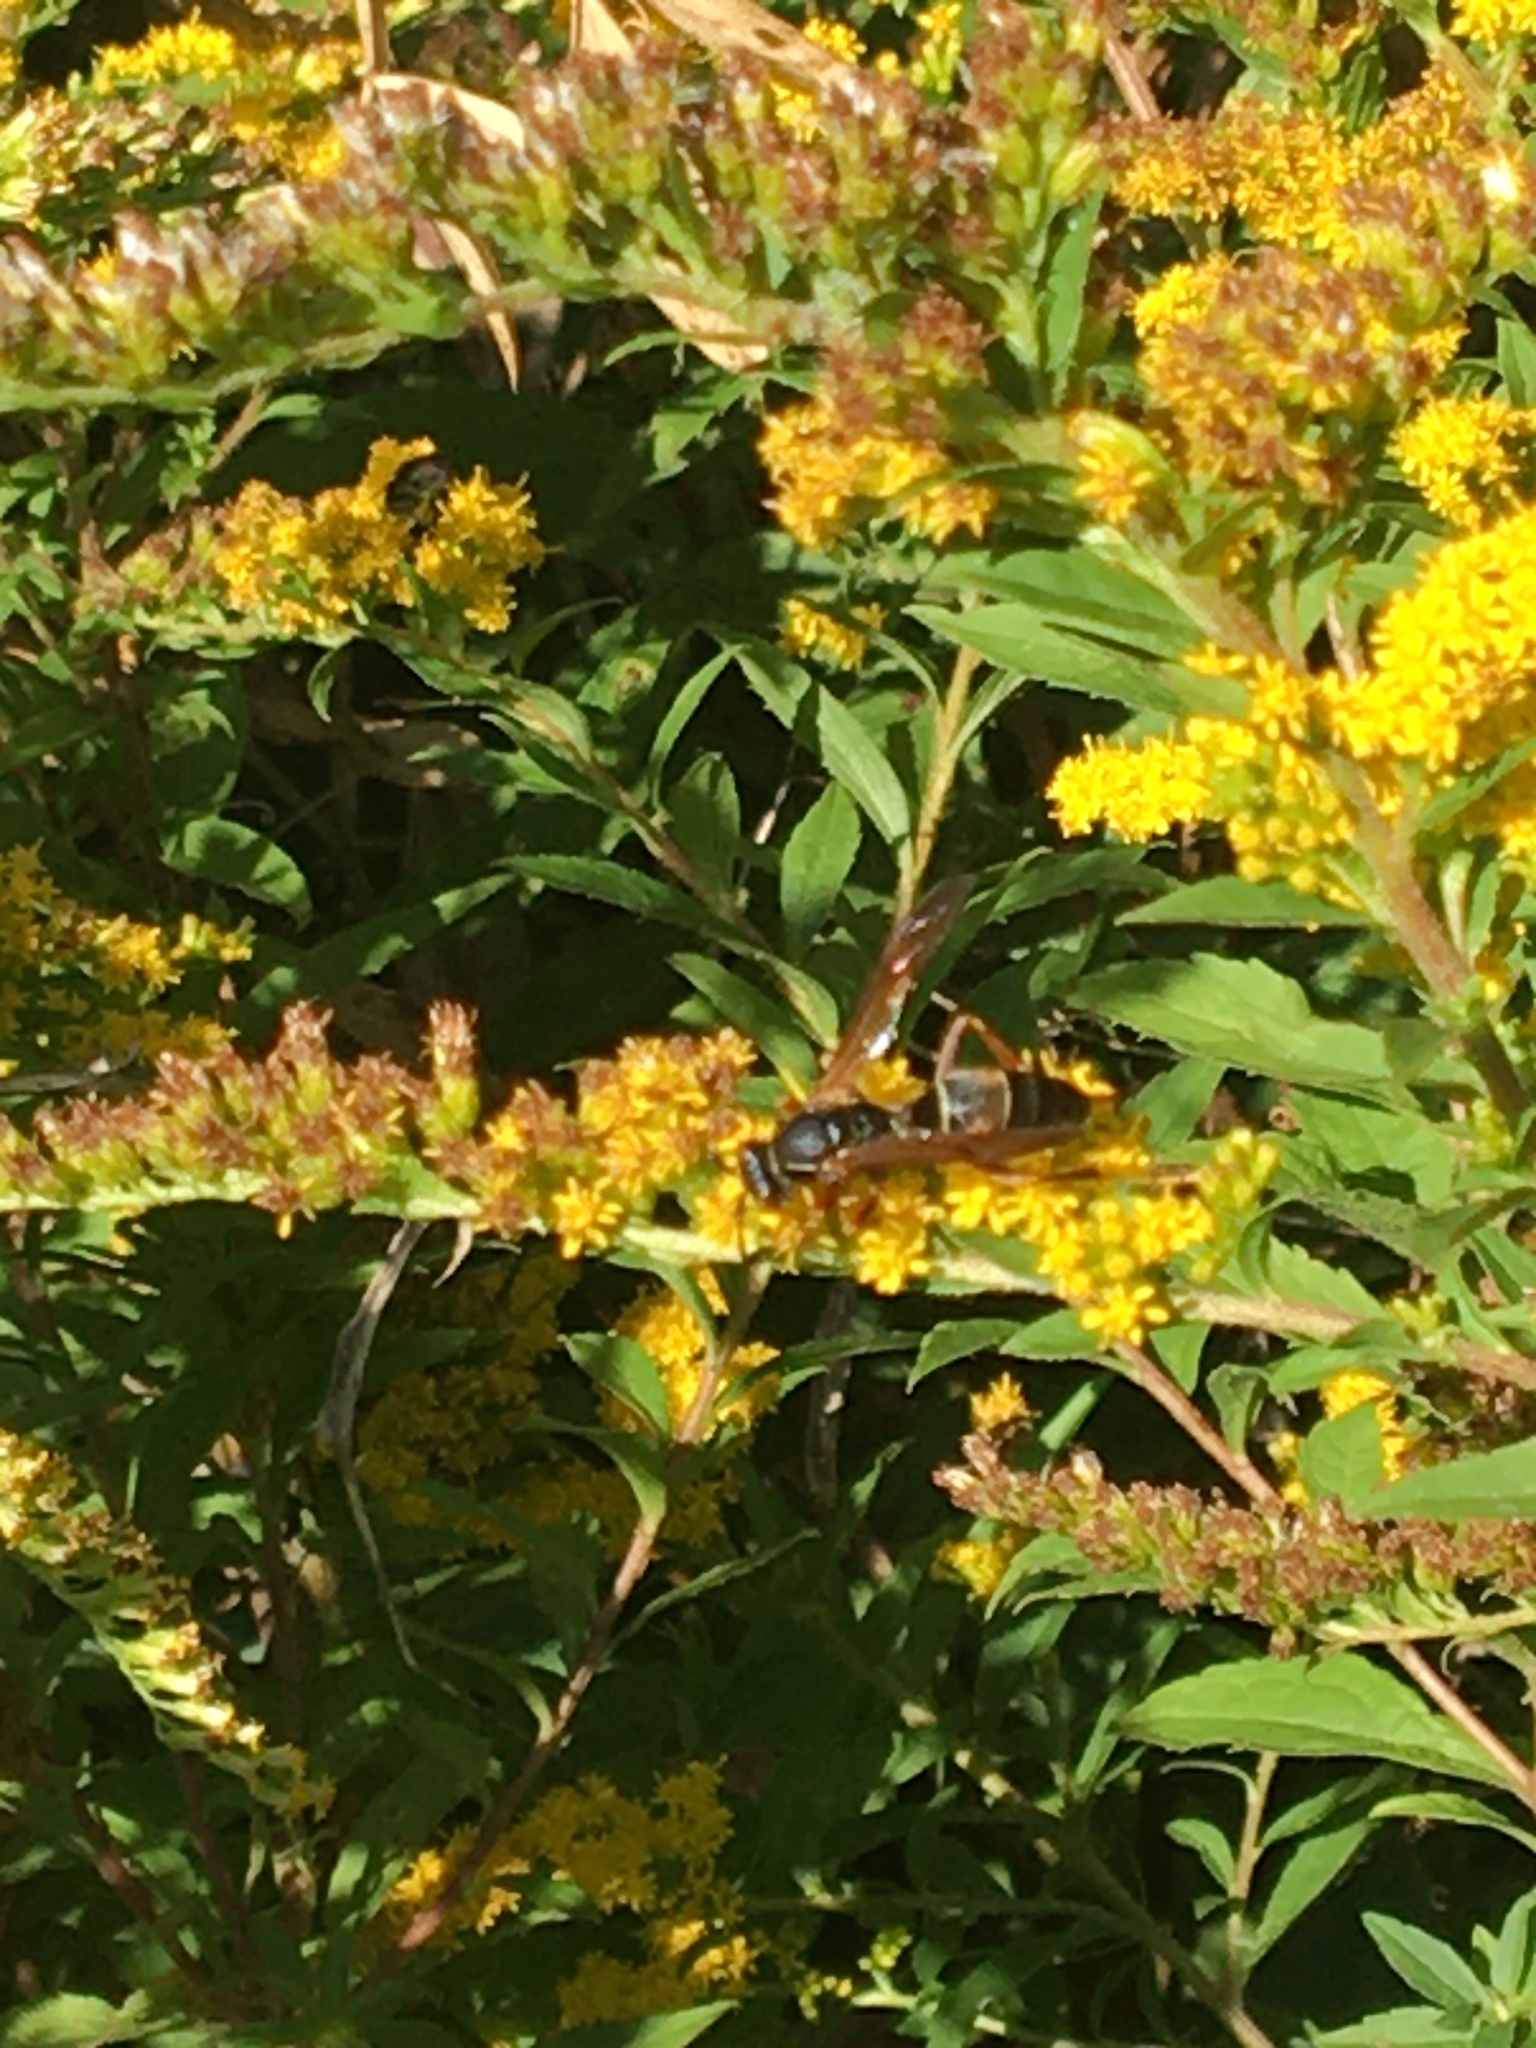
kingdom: Animalia
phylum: Arthropoda
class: Insecta
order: Hymenoptera
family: Eumenidae
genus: Polistes
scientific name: Polistes fuscatus
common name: Dark paper wasp
